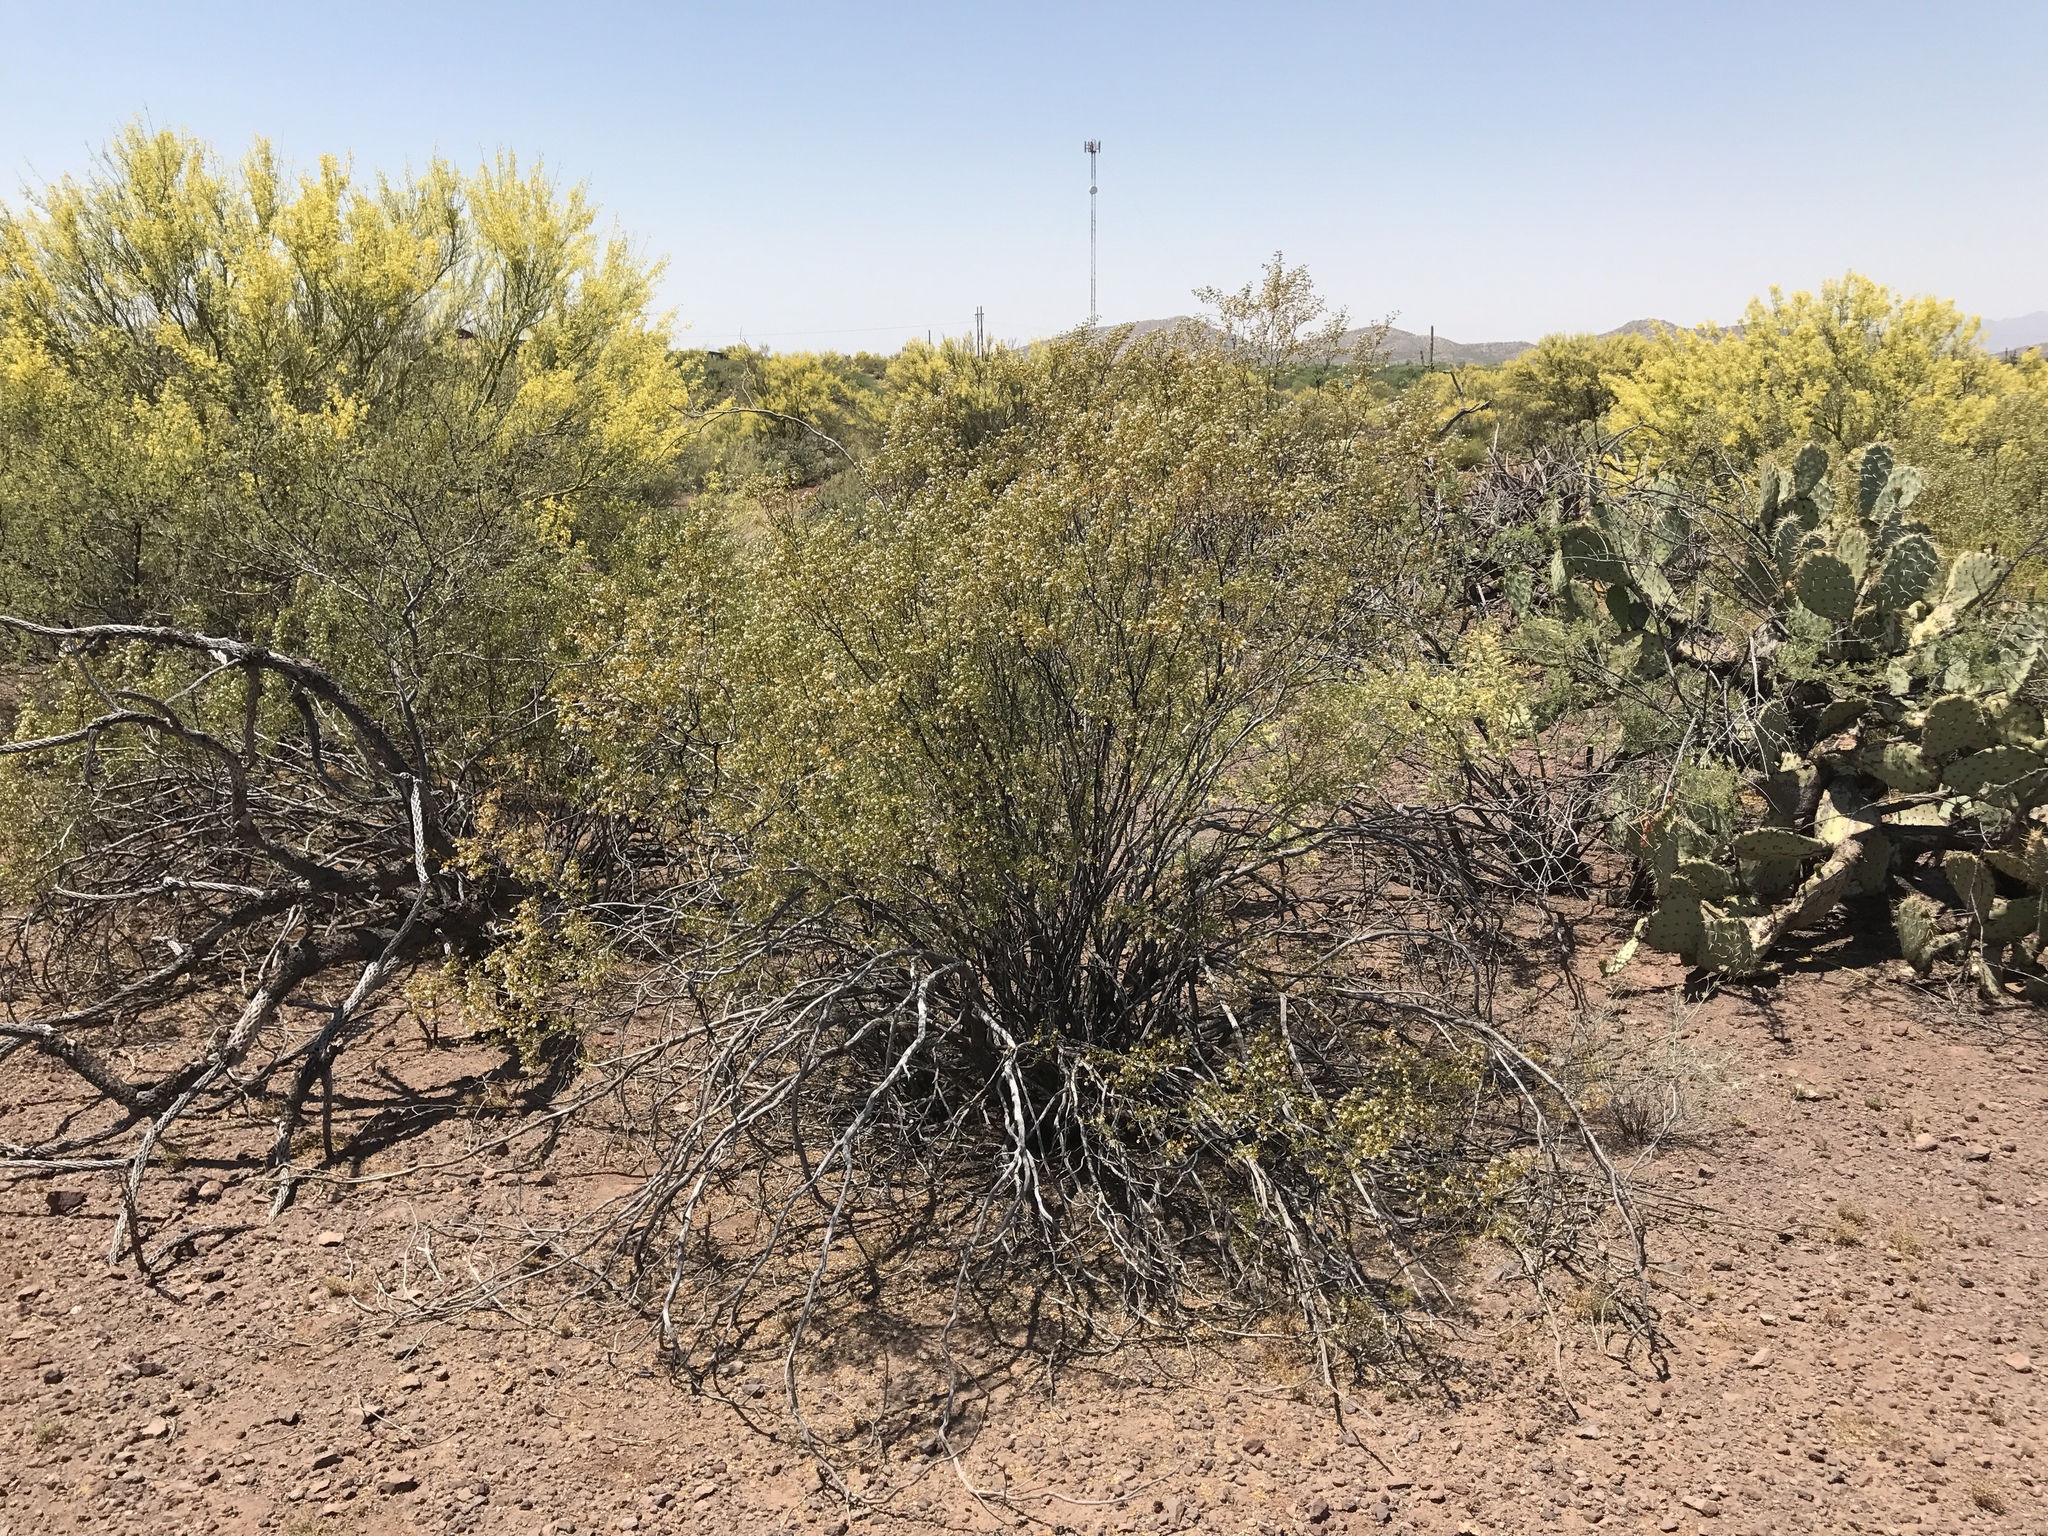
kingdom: Plantae
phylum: Tracheophyta
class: Magnoliopsida
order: Zygophyllales
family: Zygophyllaceae
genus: Larrea
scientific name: Larrea tridentata
